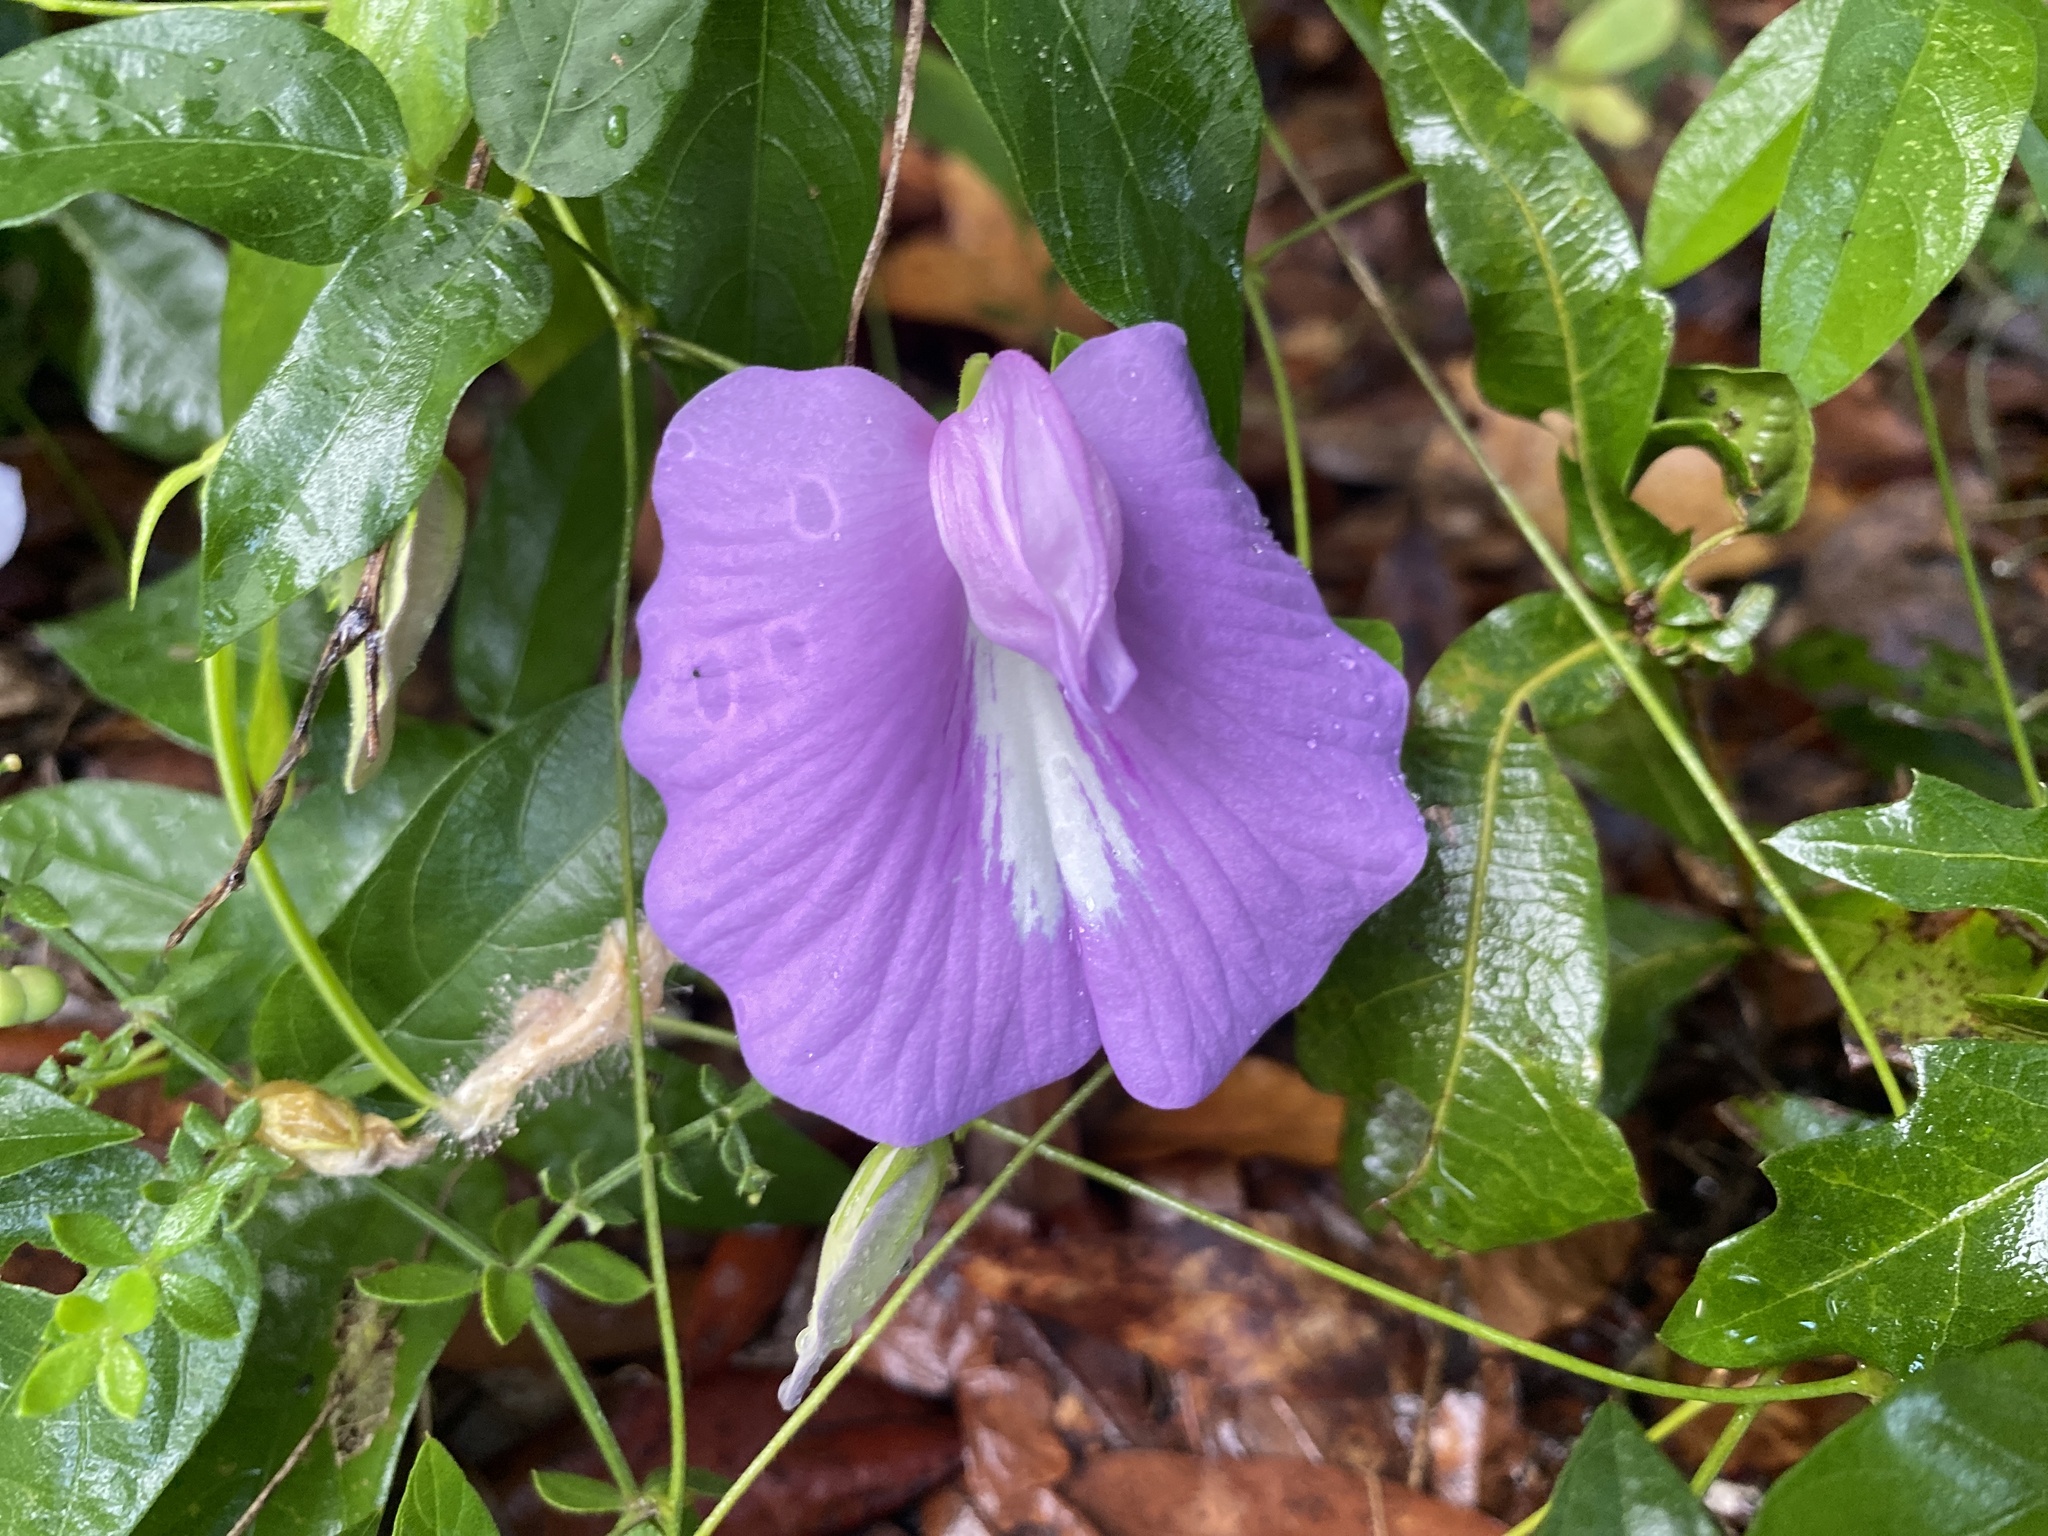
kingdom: Plantae
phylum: Tracheophyta
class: Magnoliopsida
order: Fabales
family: Fabaceae
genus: Centrosema
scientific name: Centrosema virginianum
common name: Butterfly-pea
